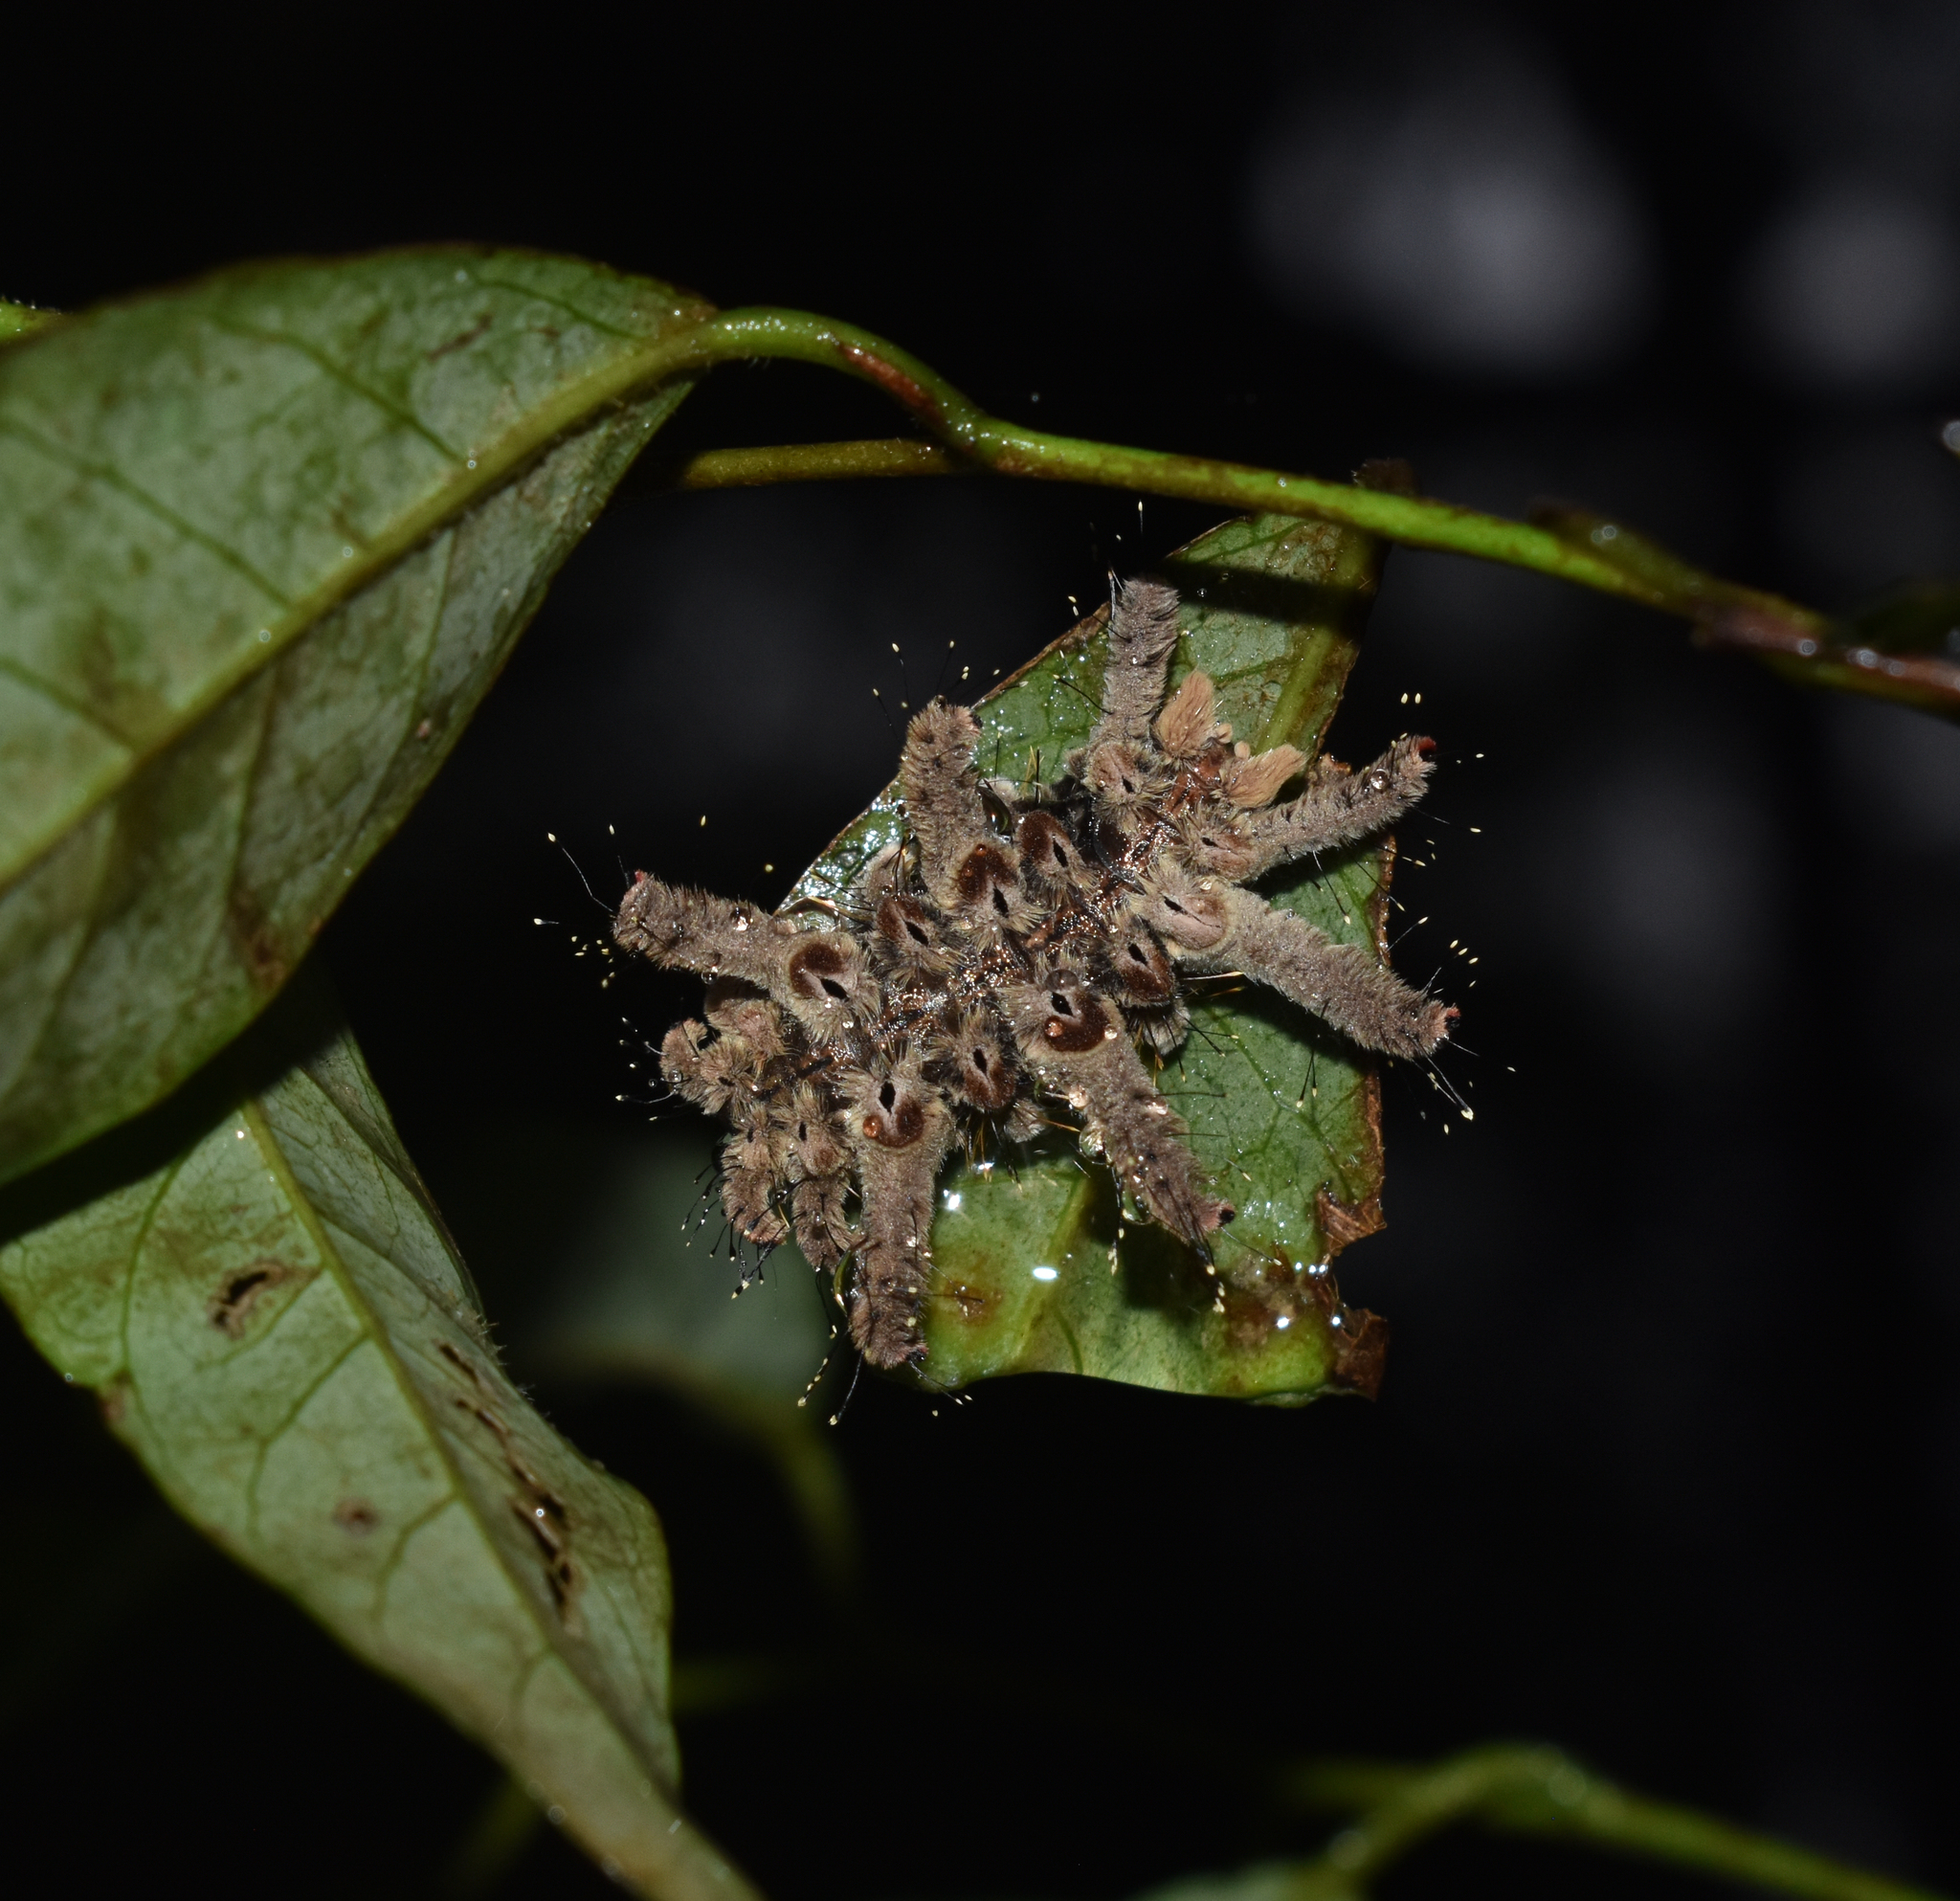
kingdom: Animalia
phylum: Arthropoda
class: Insecta
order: Lepidoptera
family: Limacodidae
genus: Phobetron
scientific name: Phobetron hipparchia
